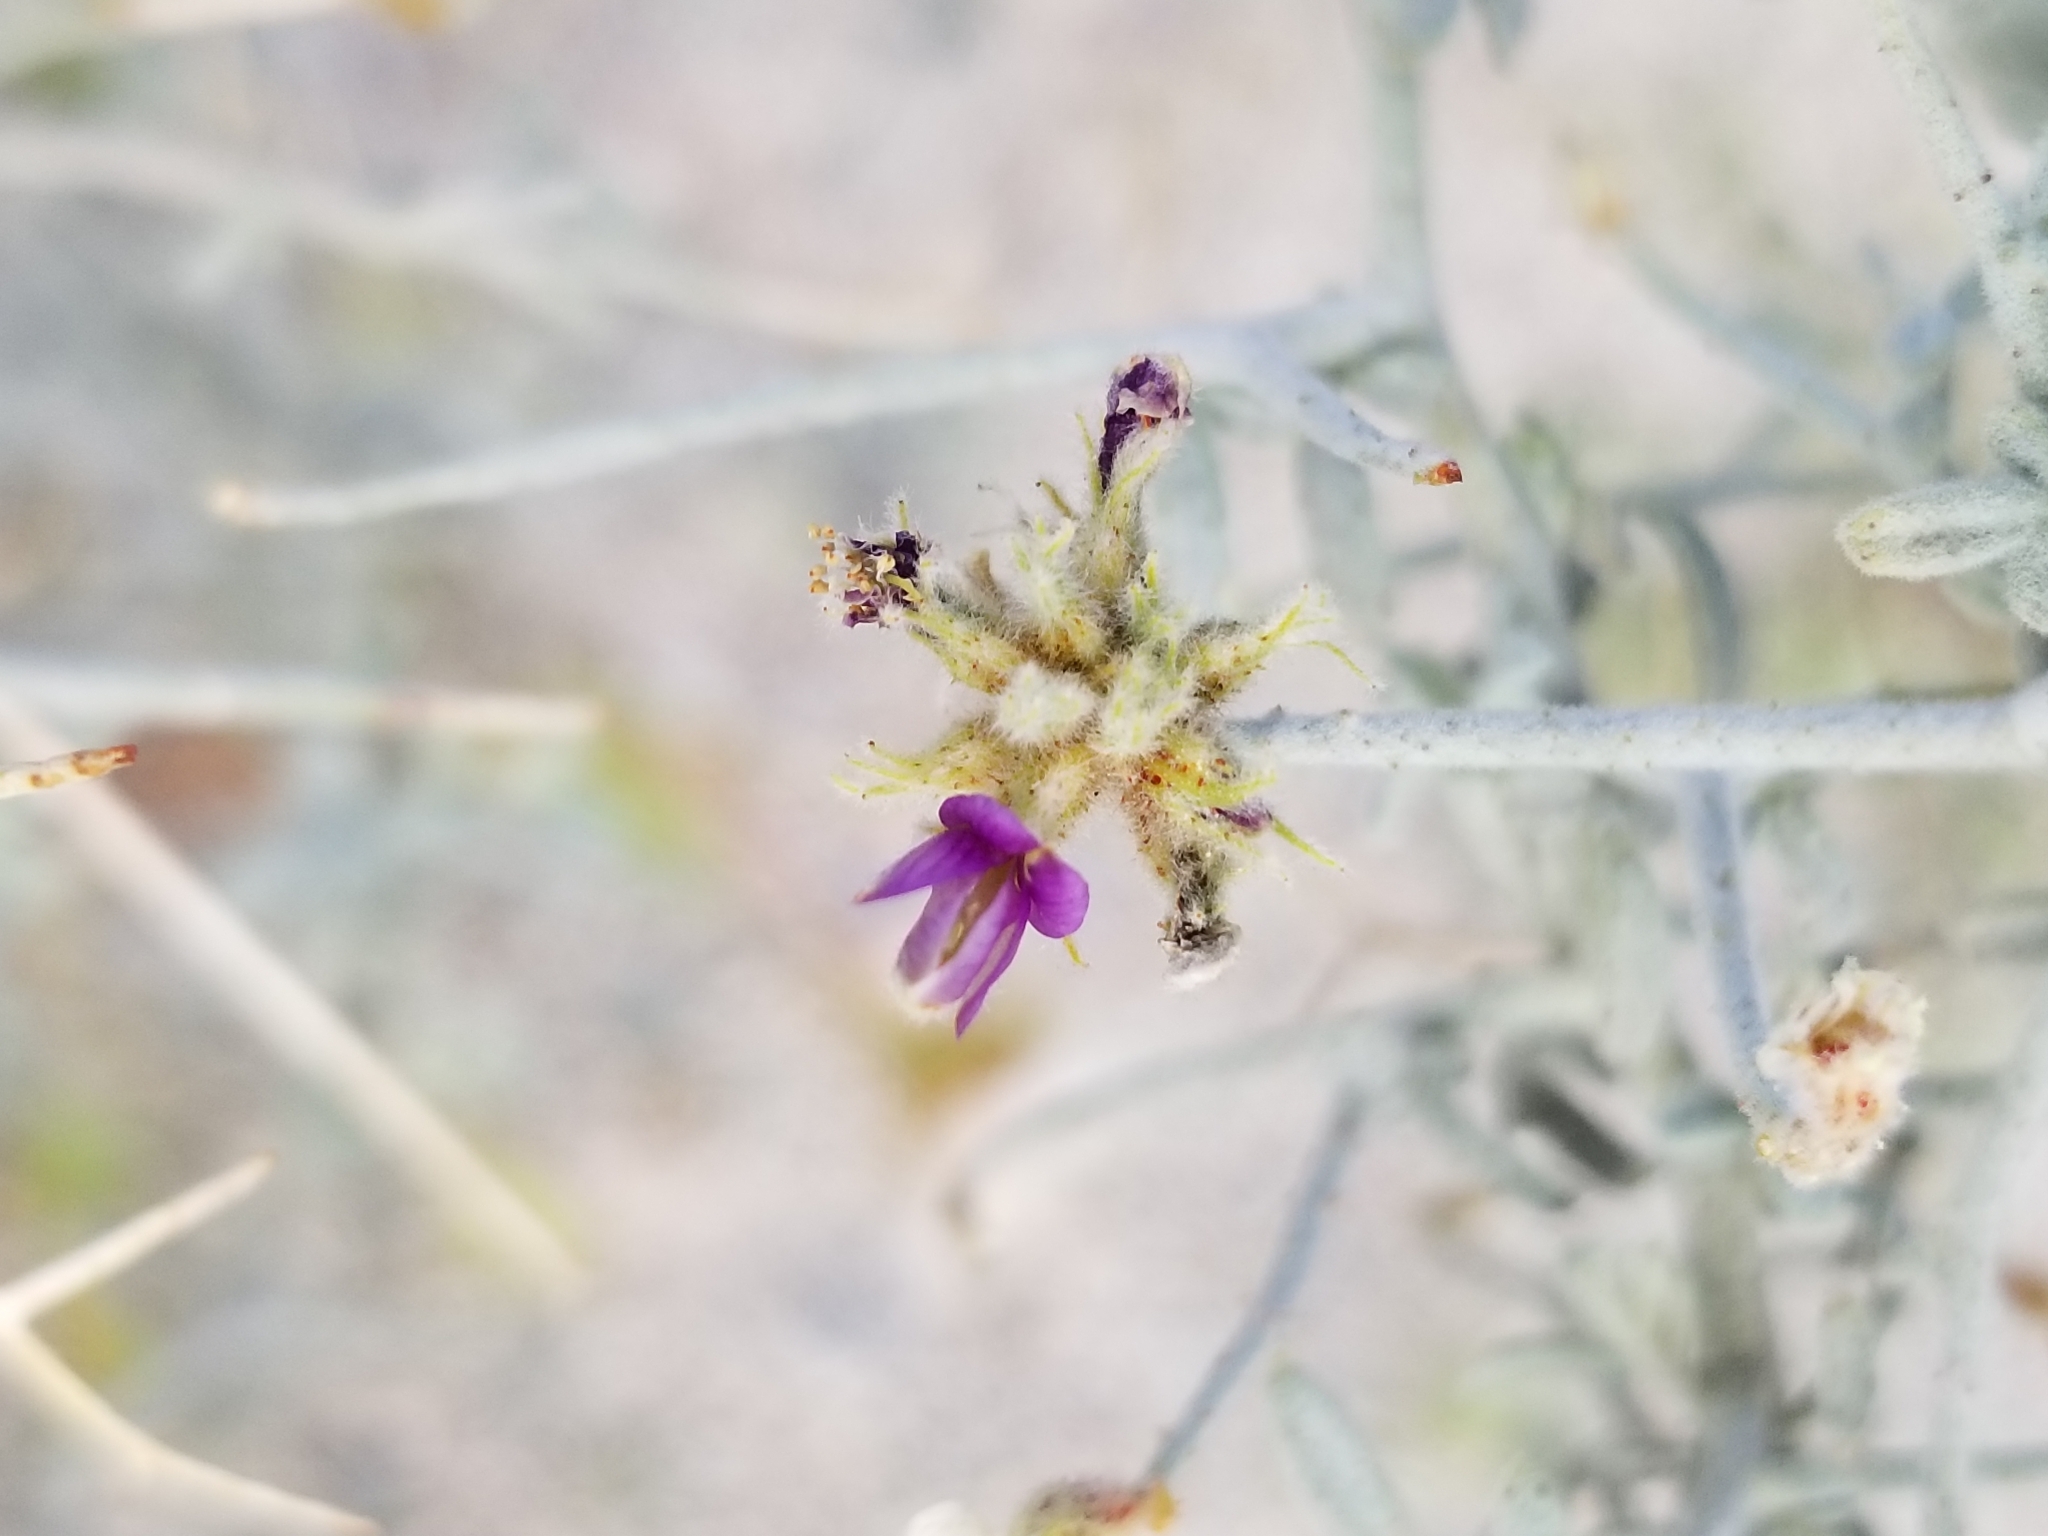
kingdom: Plantae
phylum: Tracheophyta
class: Magnoliopsida
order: Fabales
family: Fabaceae
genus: Psorothamnus
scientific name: Psorothamnus emoryi
